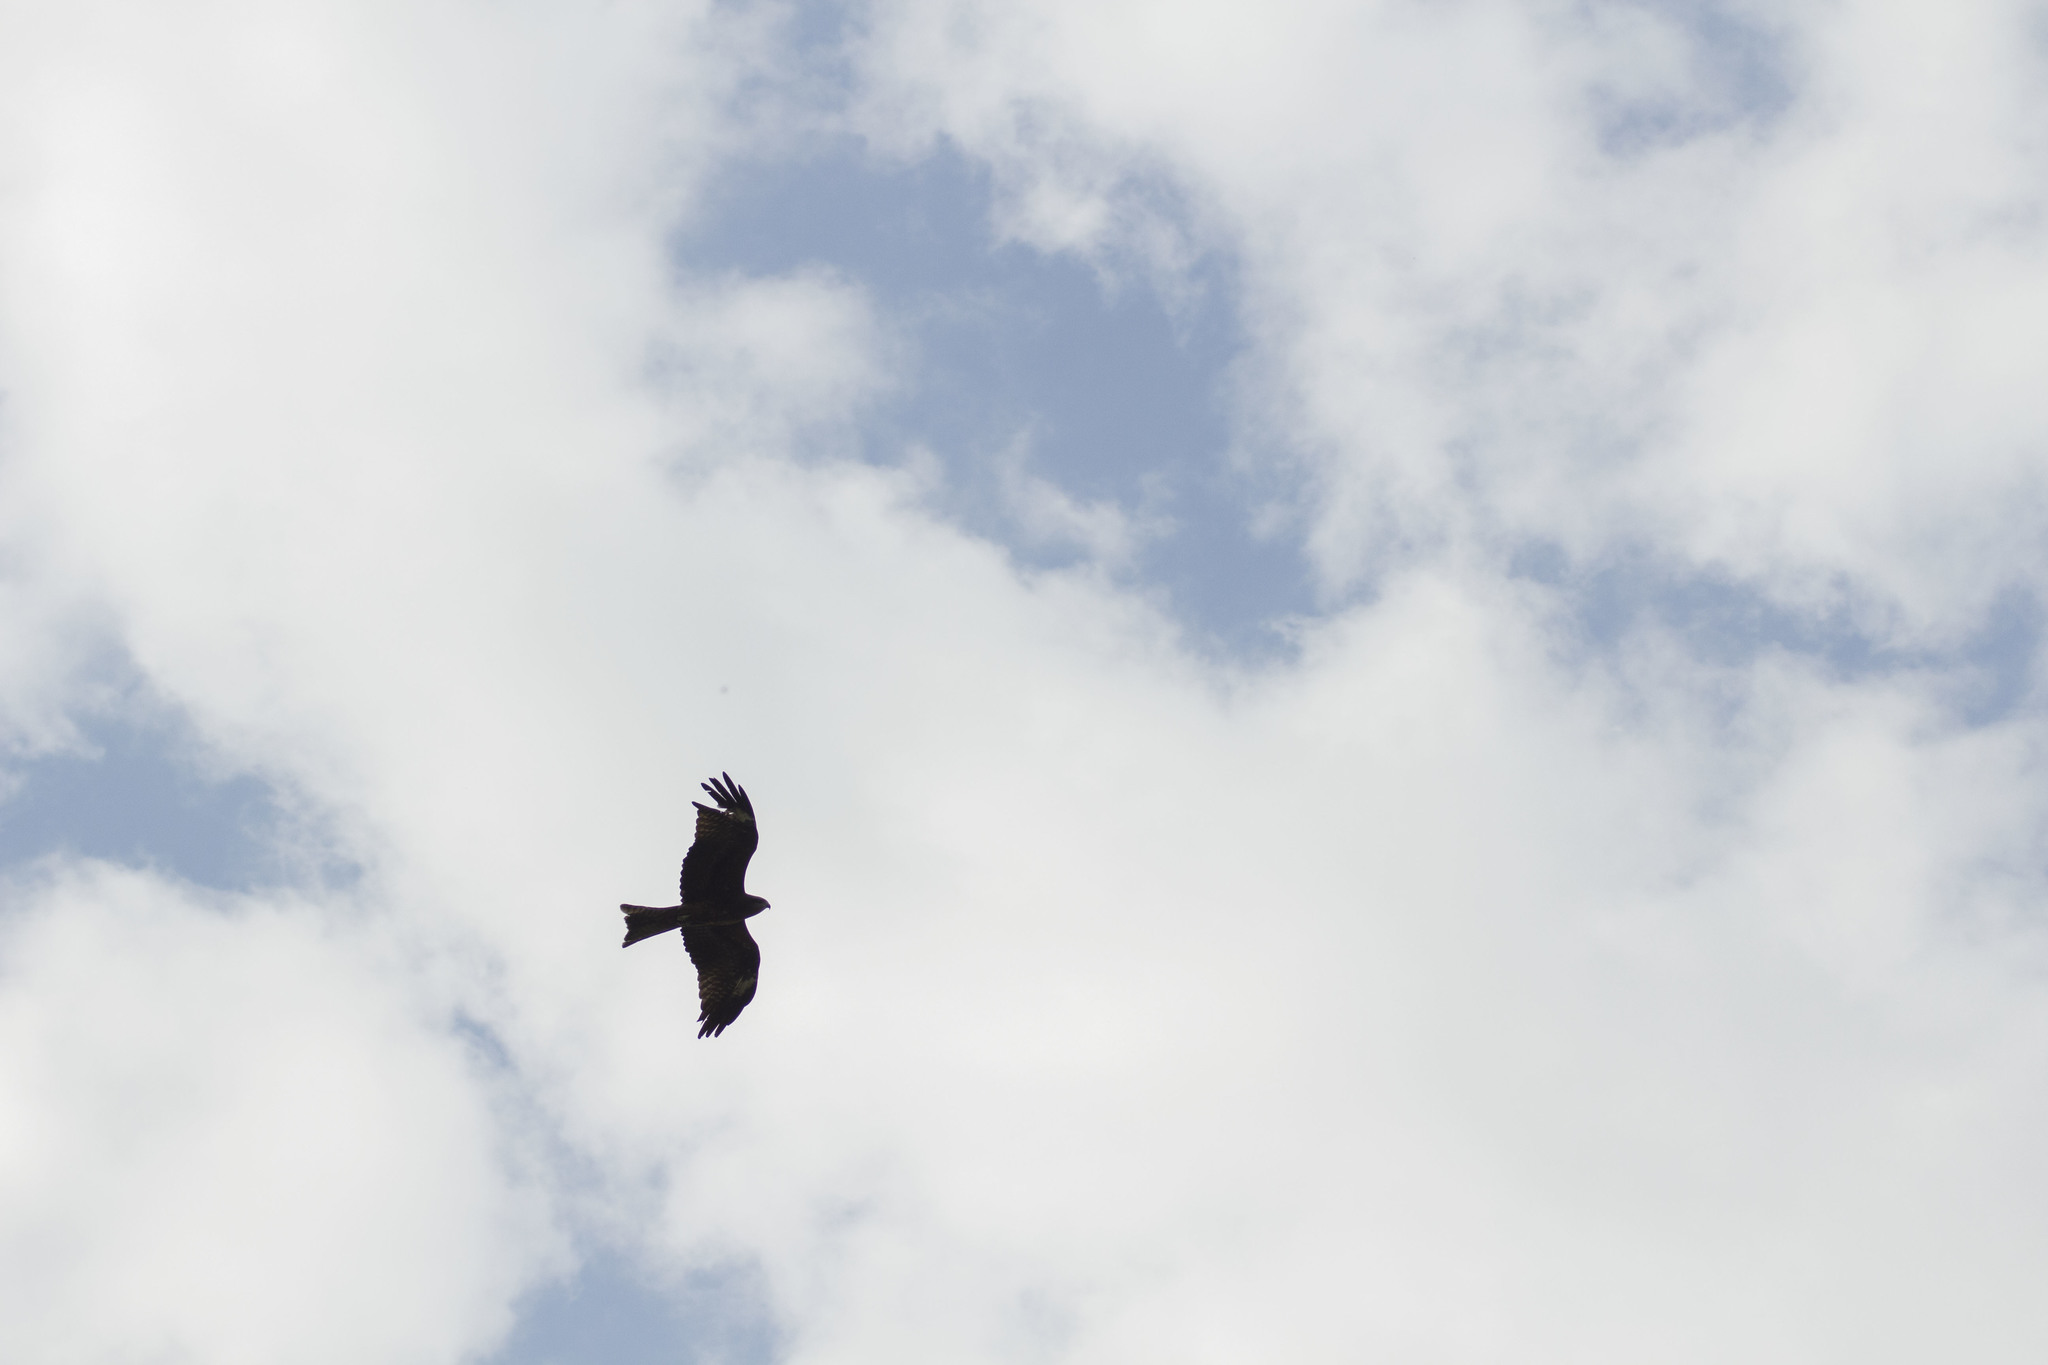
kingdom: Animalia
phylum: Chordata
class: Aves
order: Accipitriformes
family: Accipitridae
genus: Milvus
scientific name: Milvus migrans
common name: Black kite
